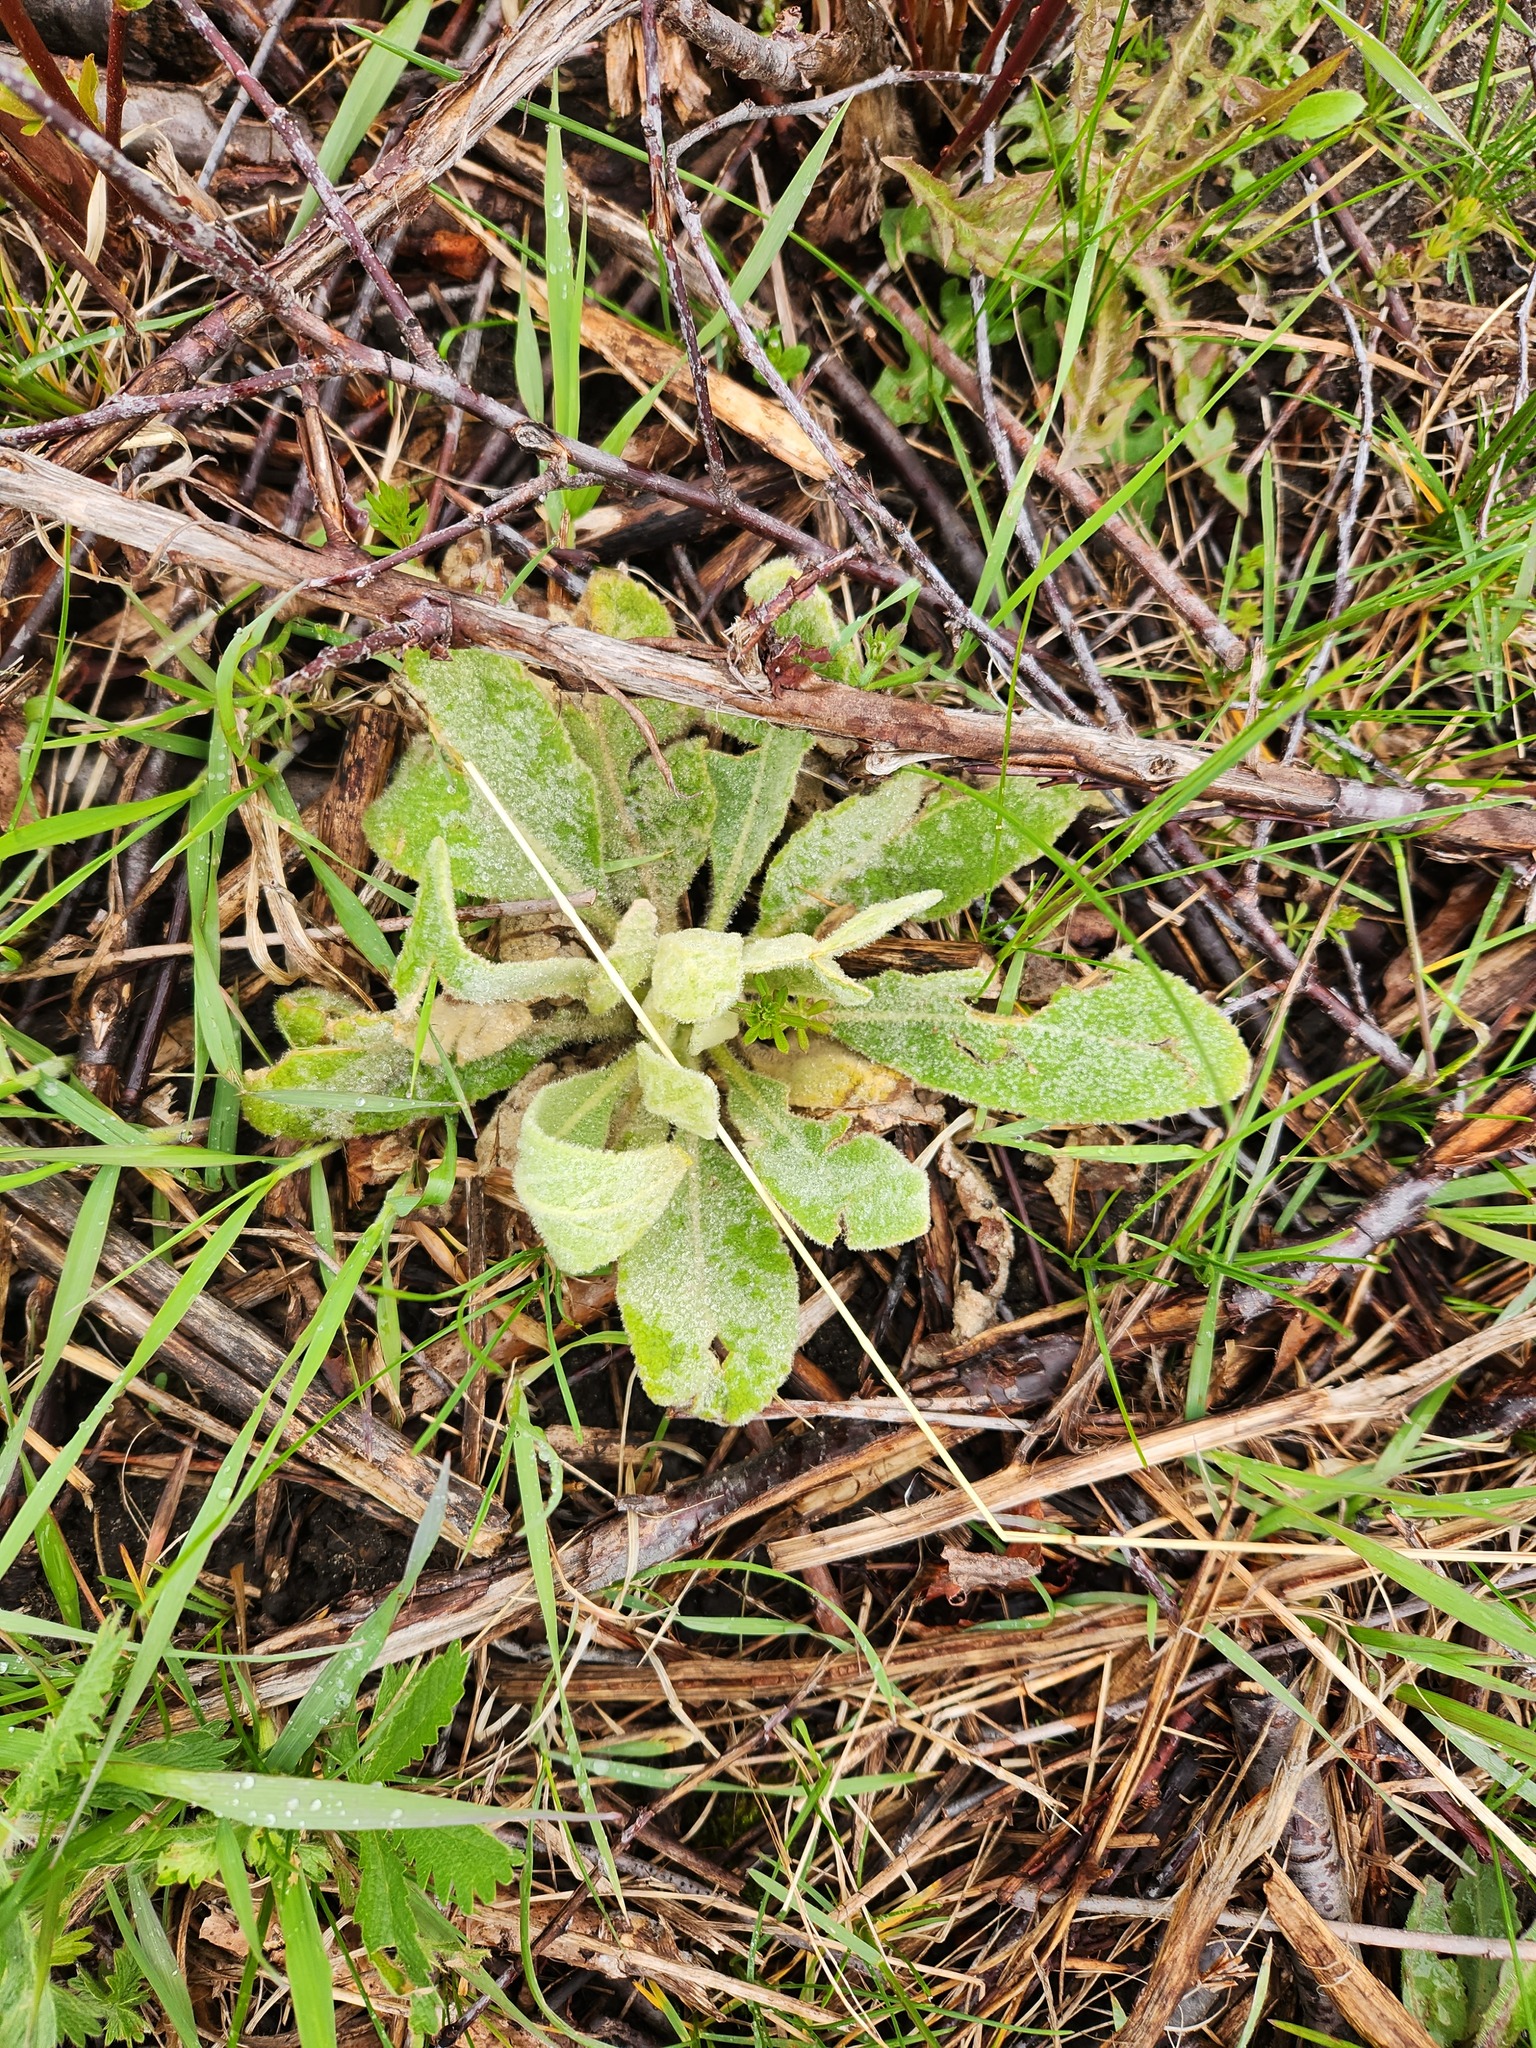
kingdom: Plantae
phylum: Tracheophyta
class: Magnoliopsida
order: Lamiales
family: Scrophulariaceae
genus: Verbascum
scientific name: Verbascum thapsus
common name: Common mullein
